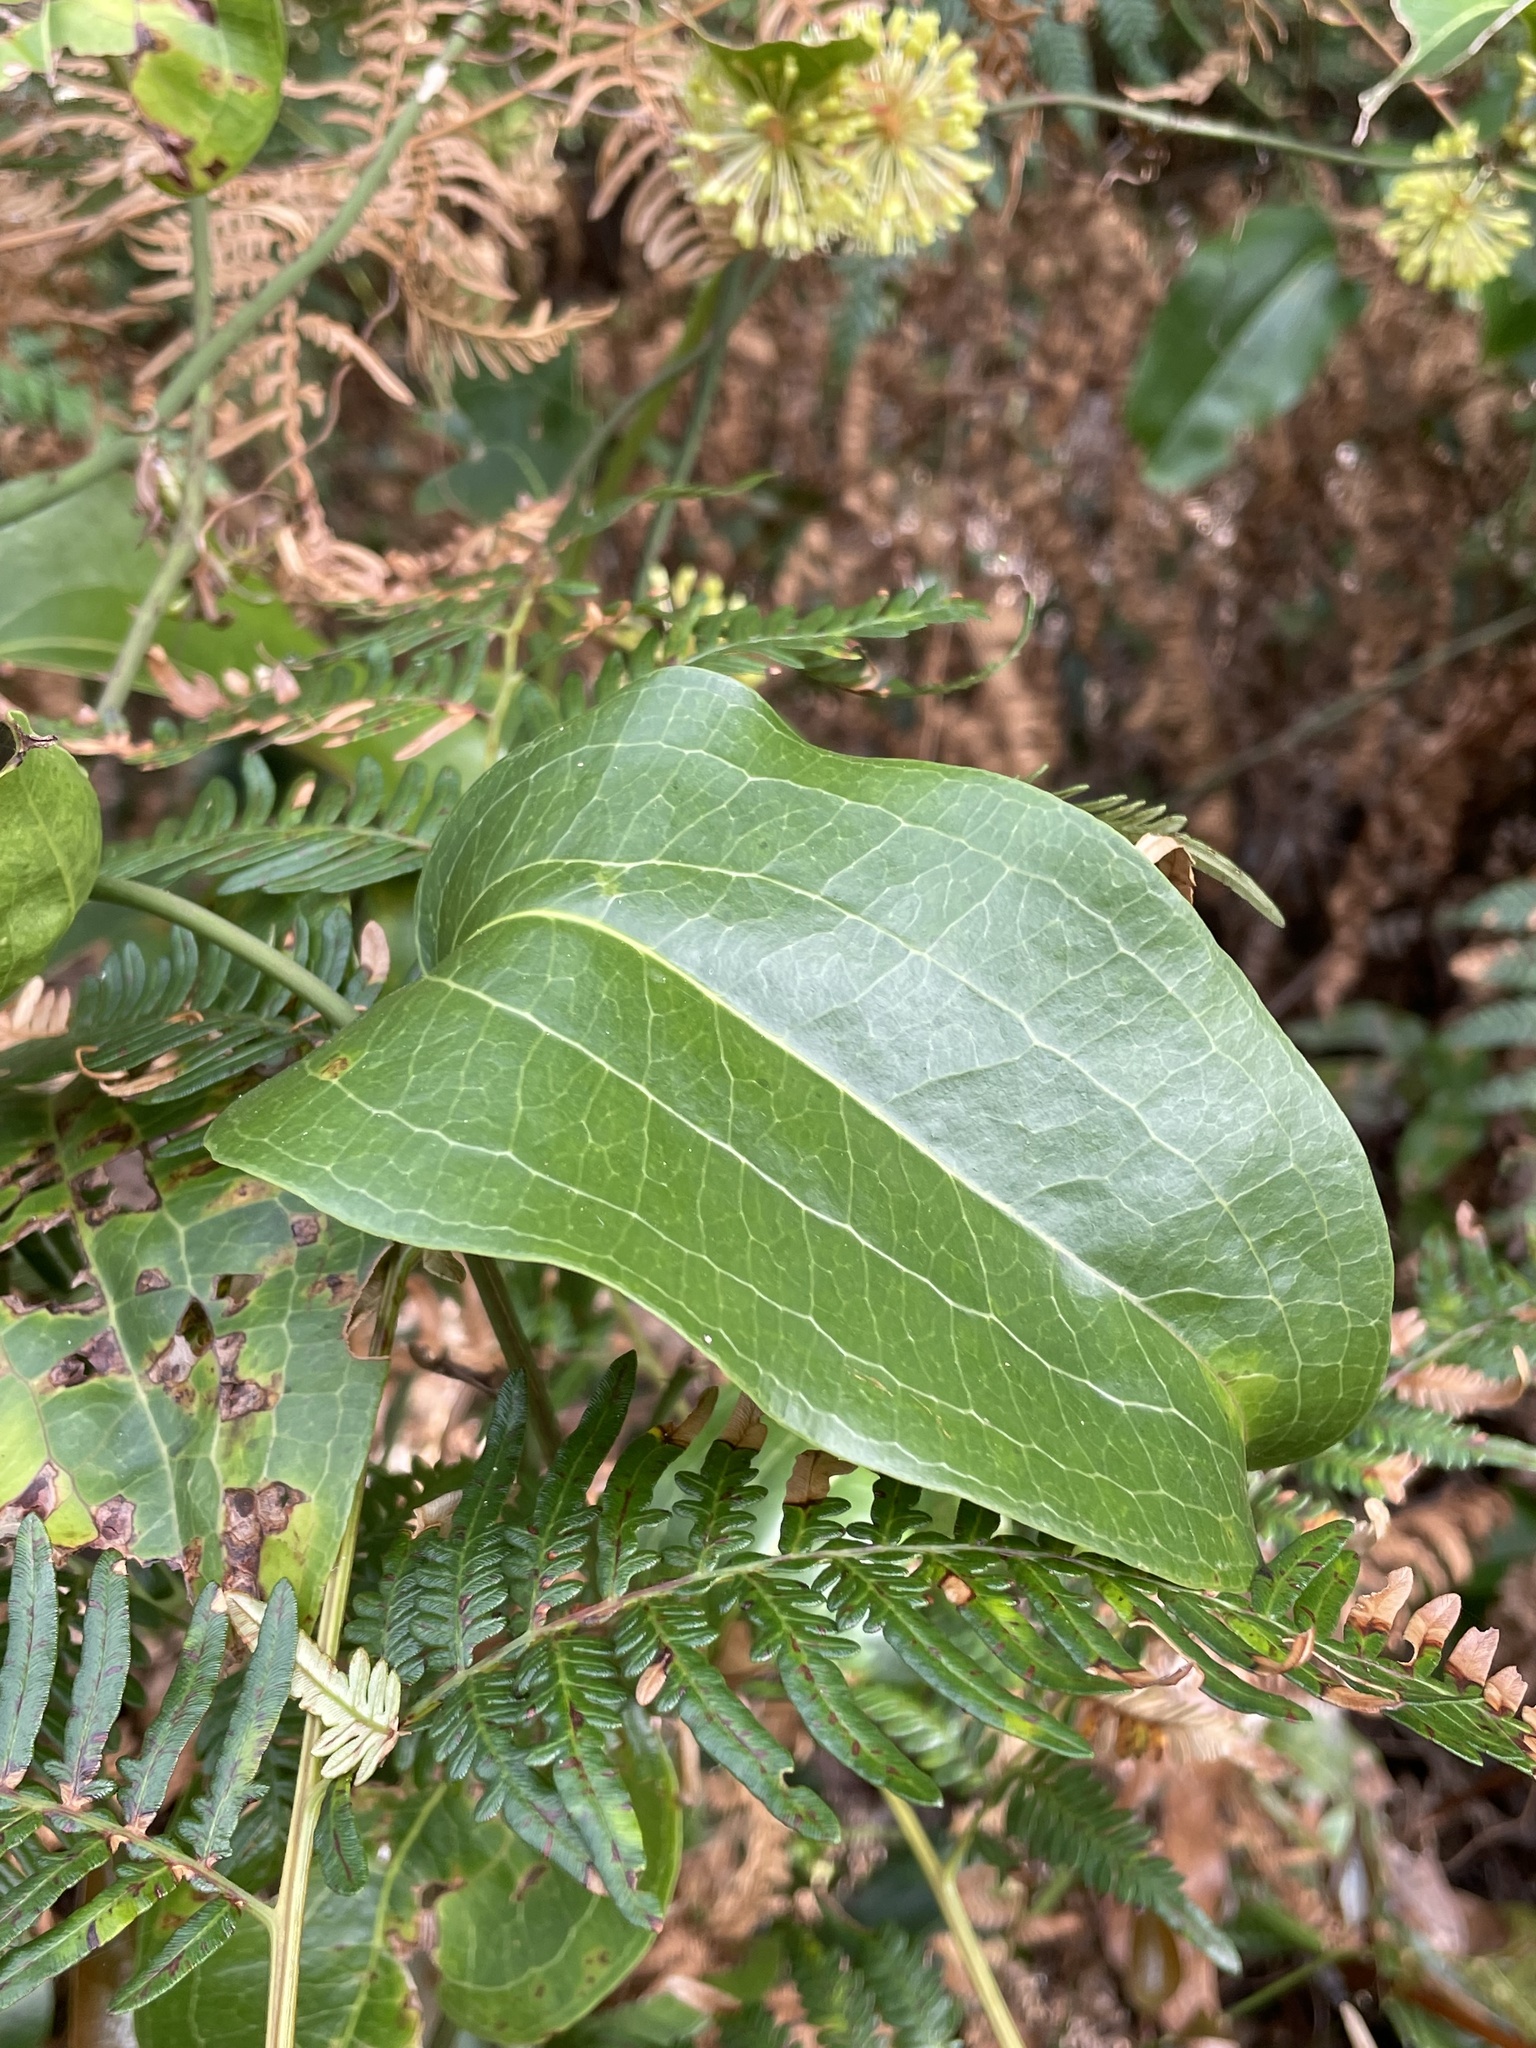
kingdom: Plantae
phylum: Tracheophyta
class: Liliopsida
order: Liliales
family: Smilacaceae
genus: Smilax
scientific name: Smilax australis
